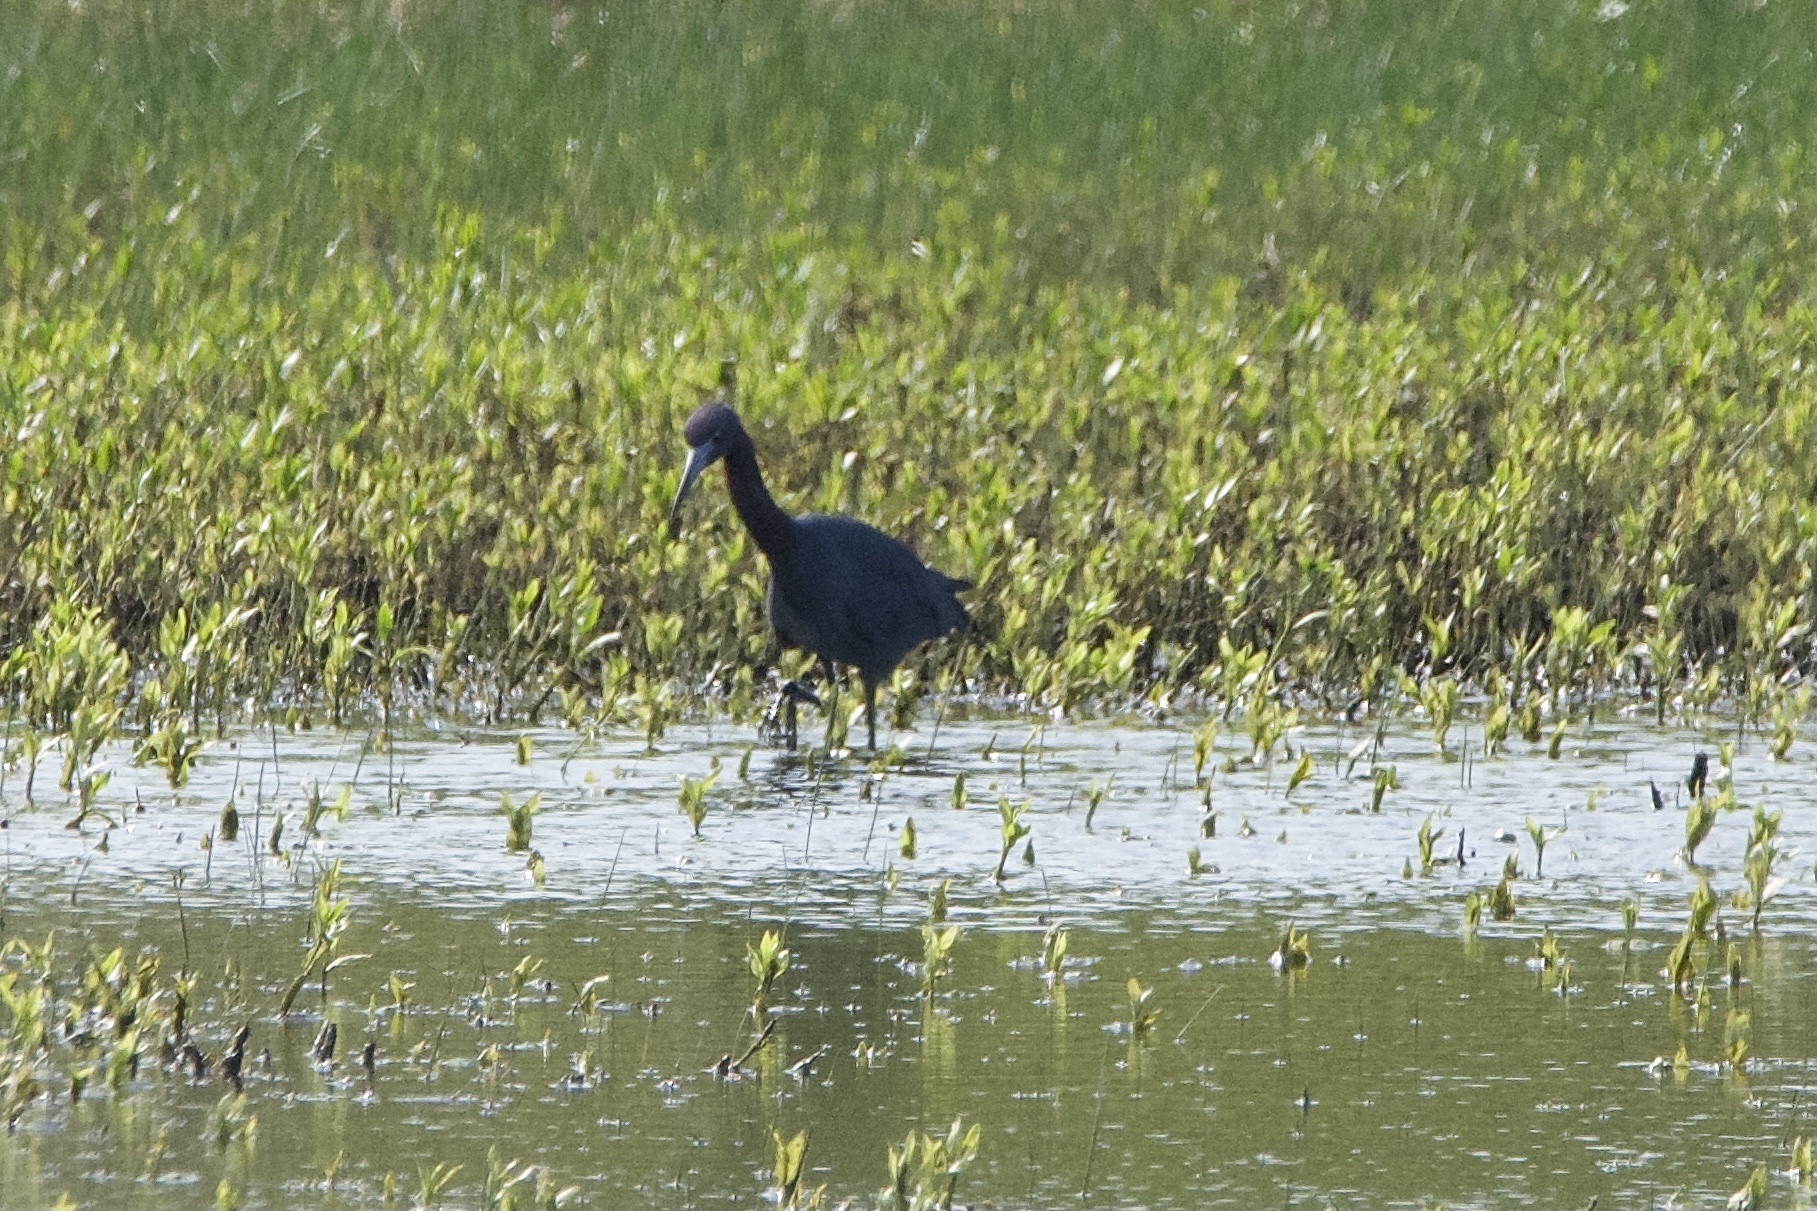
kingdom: Animalia
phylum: Chordata
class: Aves
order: Pelecaniformes
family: Ardeidae
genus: Egretta
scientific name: Egretta caerulea
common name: Little blue heron
